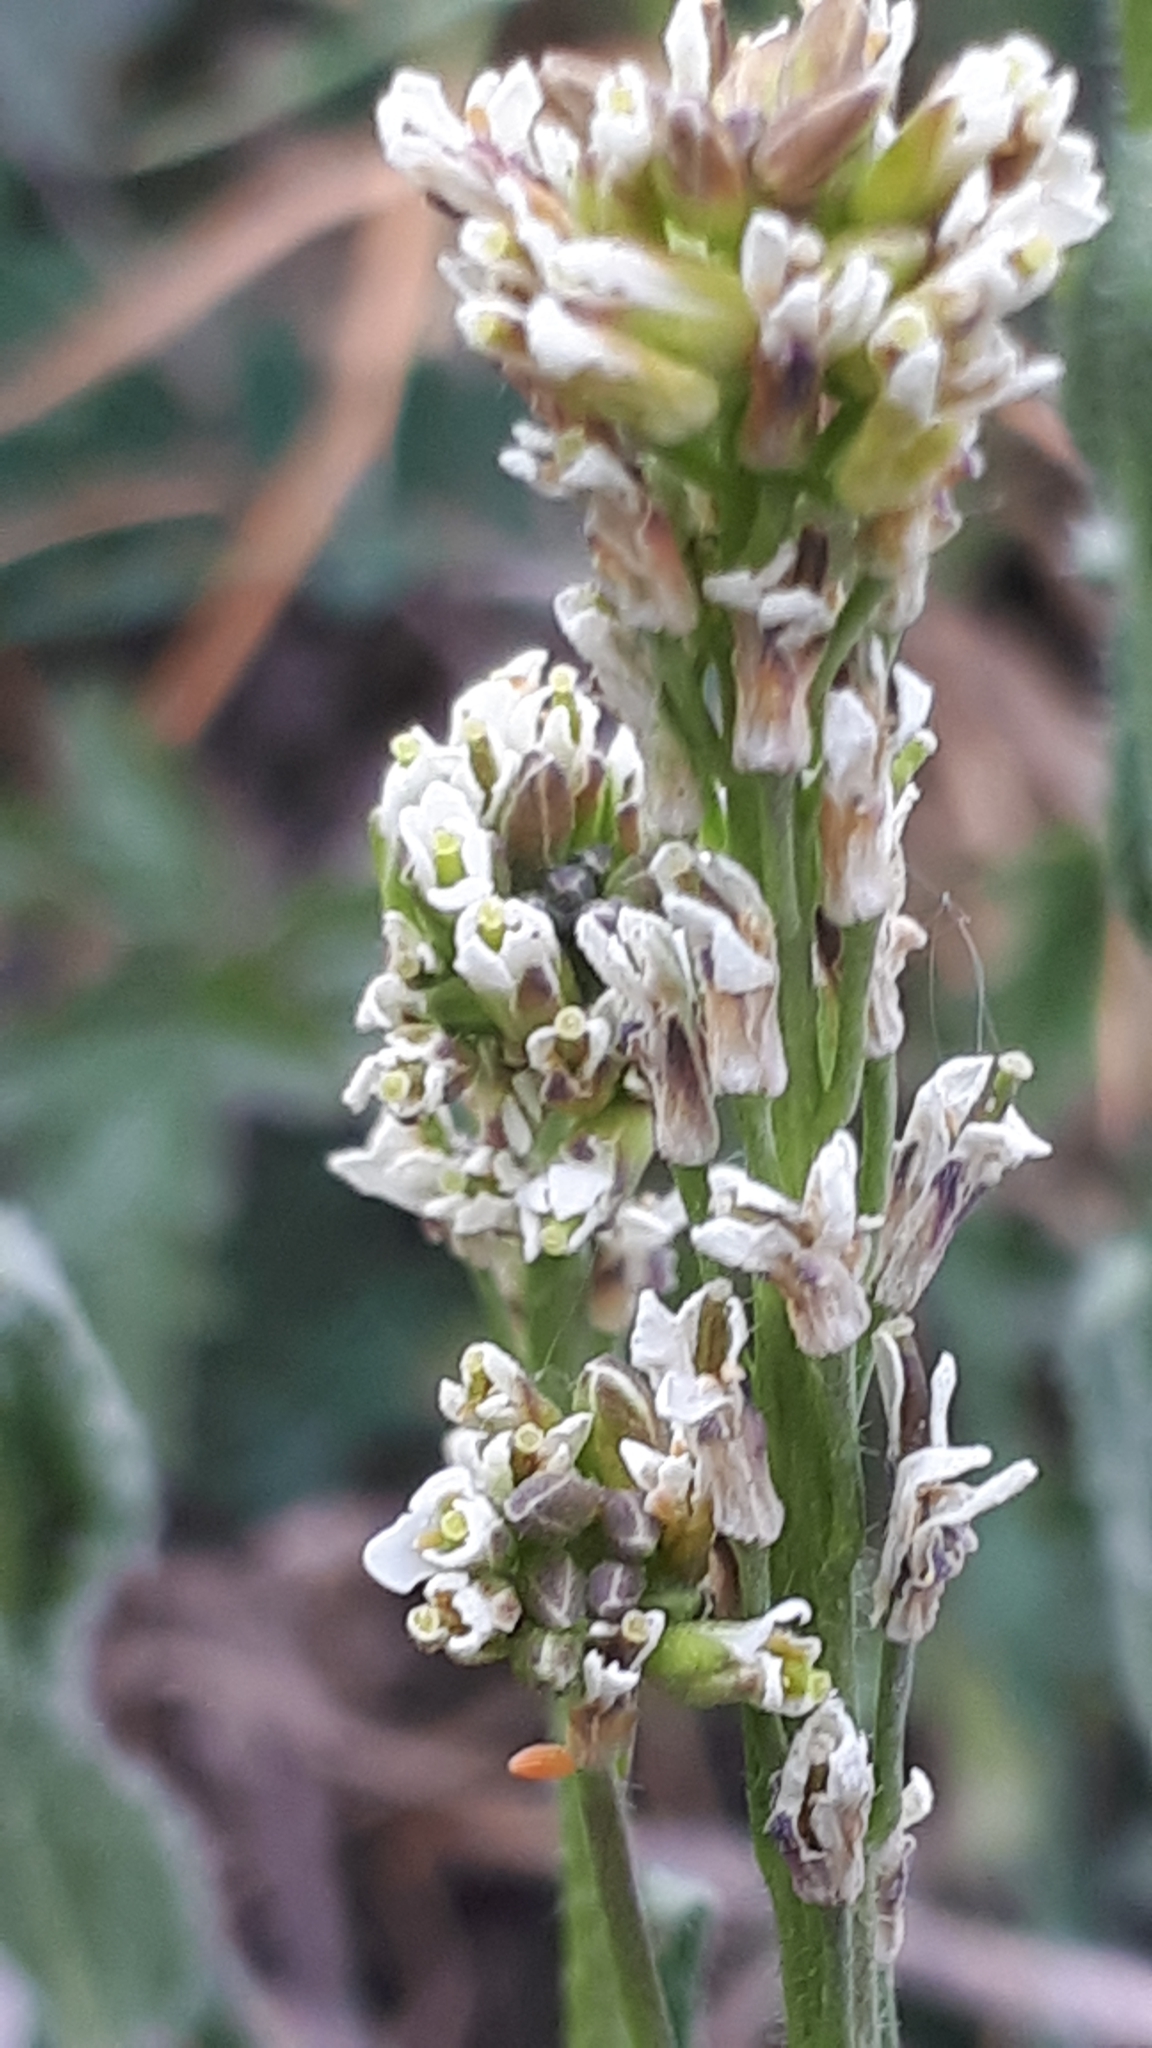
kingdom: Plantae
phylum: Tracheophyta
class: Magnoliopsida
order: Brassicales
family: Brassicaceae
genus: Arabis
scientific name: Arabis hirsuta
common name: Hairy rock-cress
